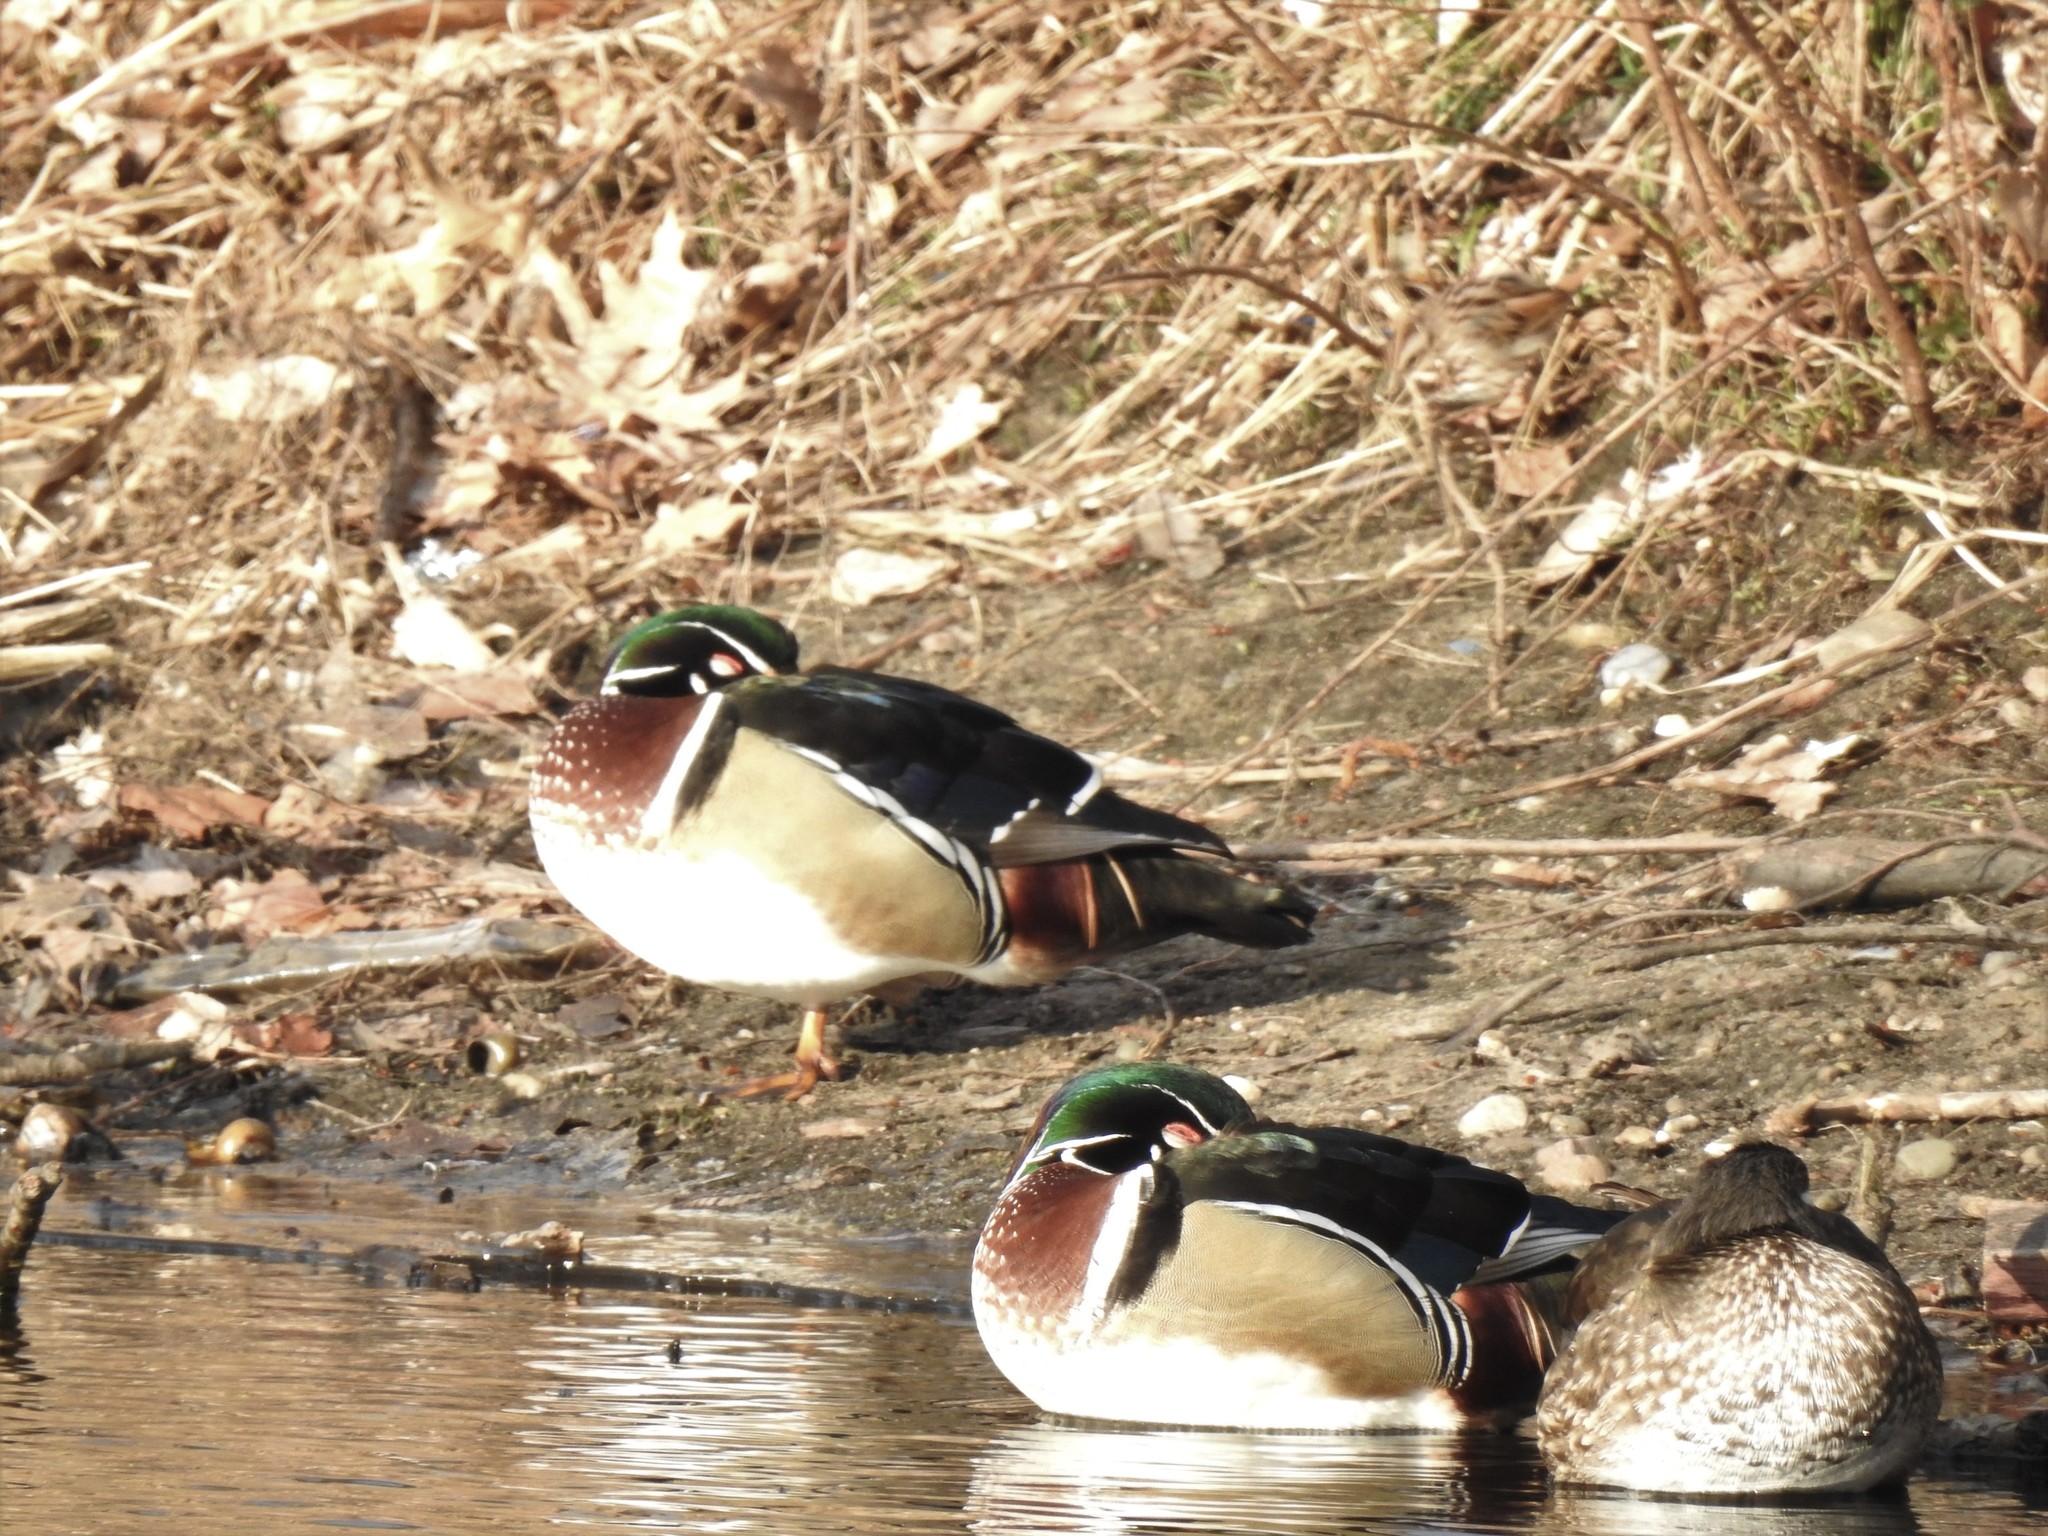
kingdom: Animalia
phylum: Chordata
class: Aves
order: Anseriformes
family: Anatidae
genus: Aix
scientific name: Aix sponsa
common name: Wood duck
